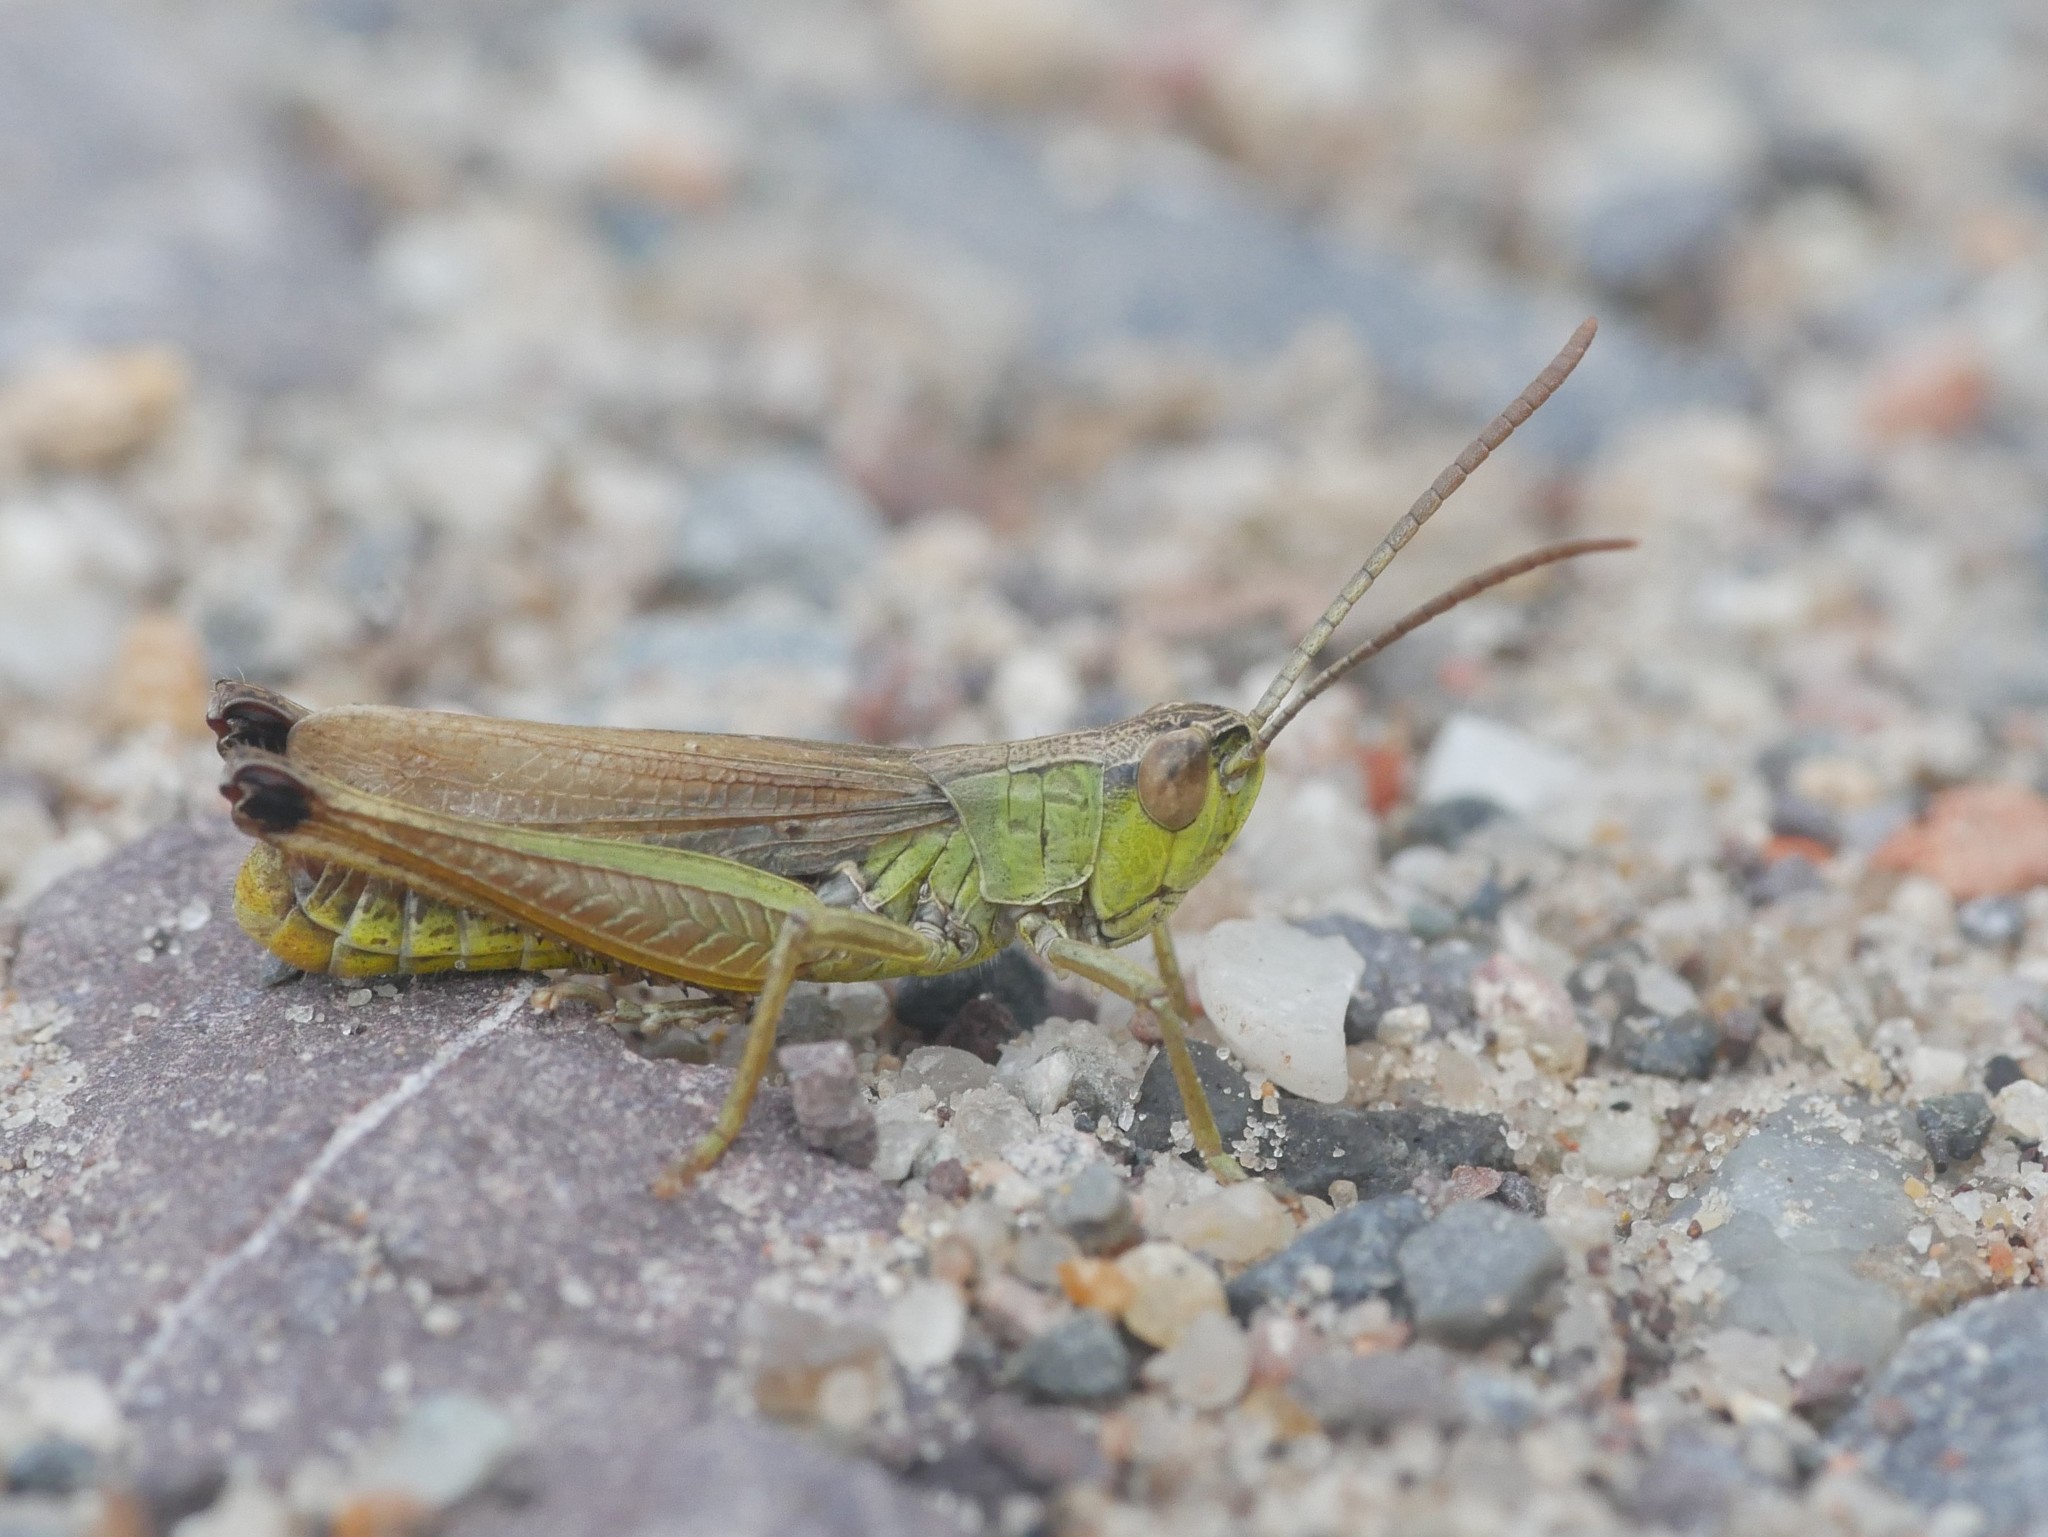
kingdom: Animalia
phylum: Arthropoda
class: Insecta
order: Orthoptera
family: Acrididae
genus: Pseudochorthippus
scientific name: Pseudochorthippus parallelus
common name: Meadow grasshopper
